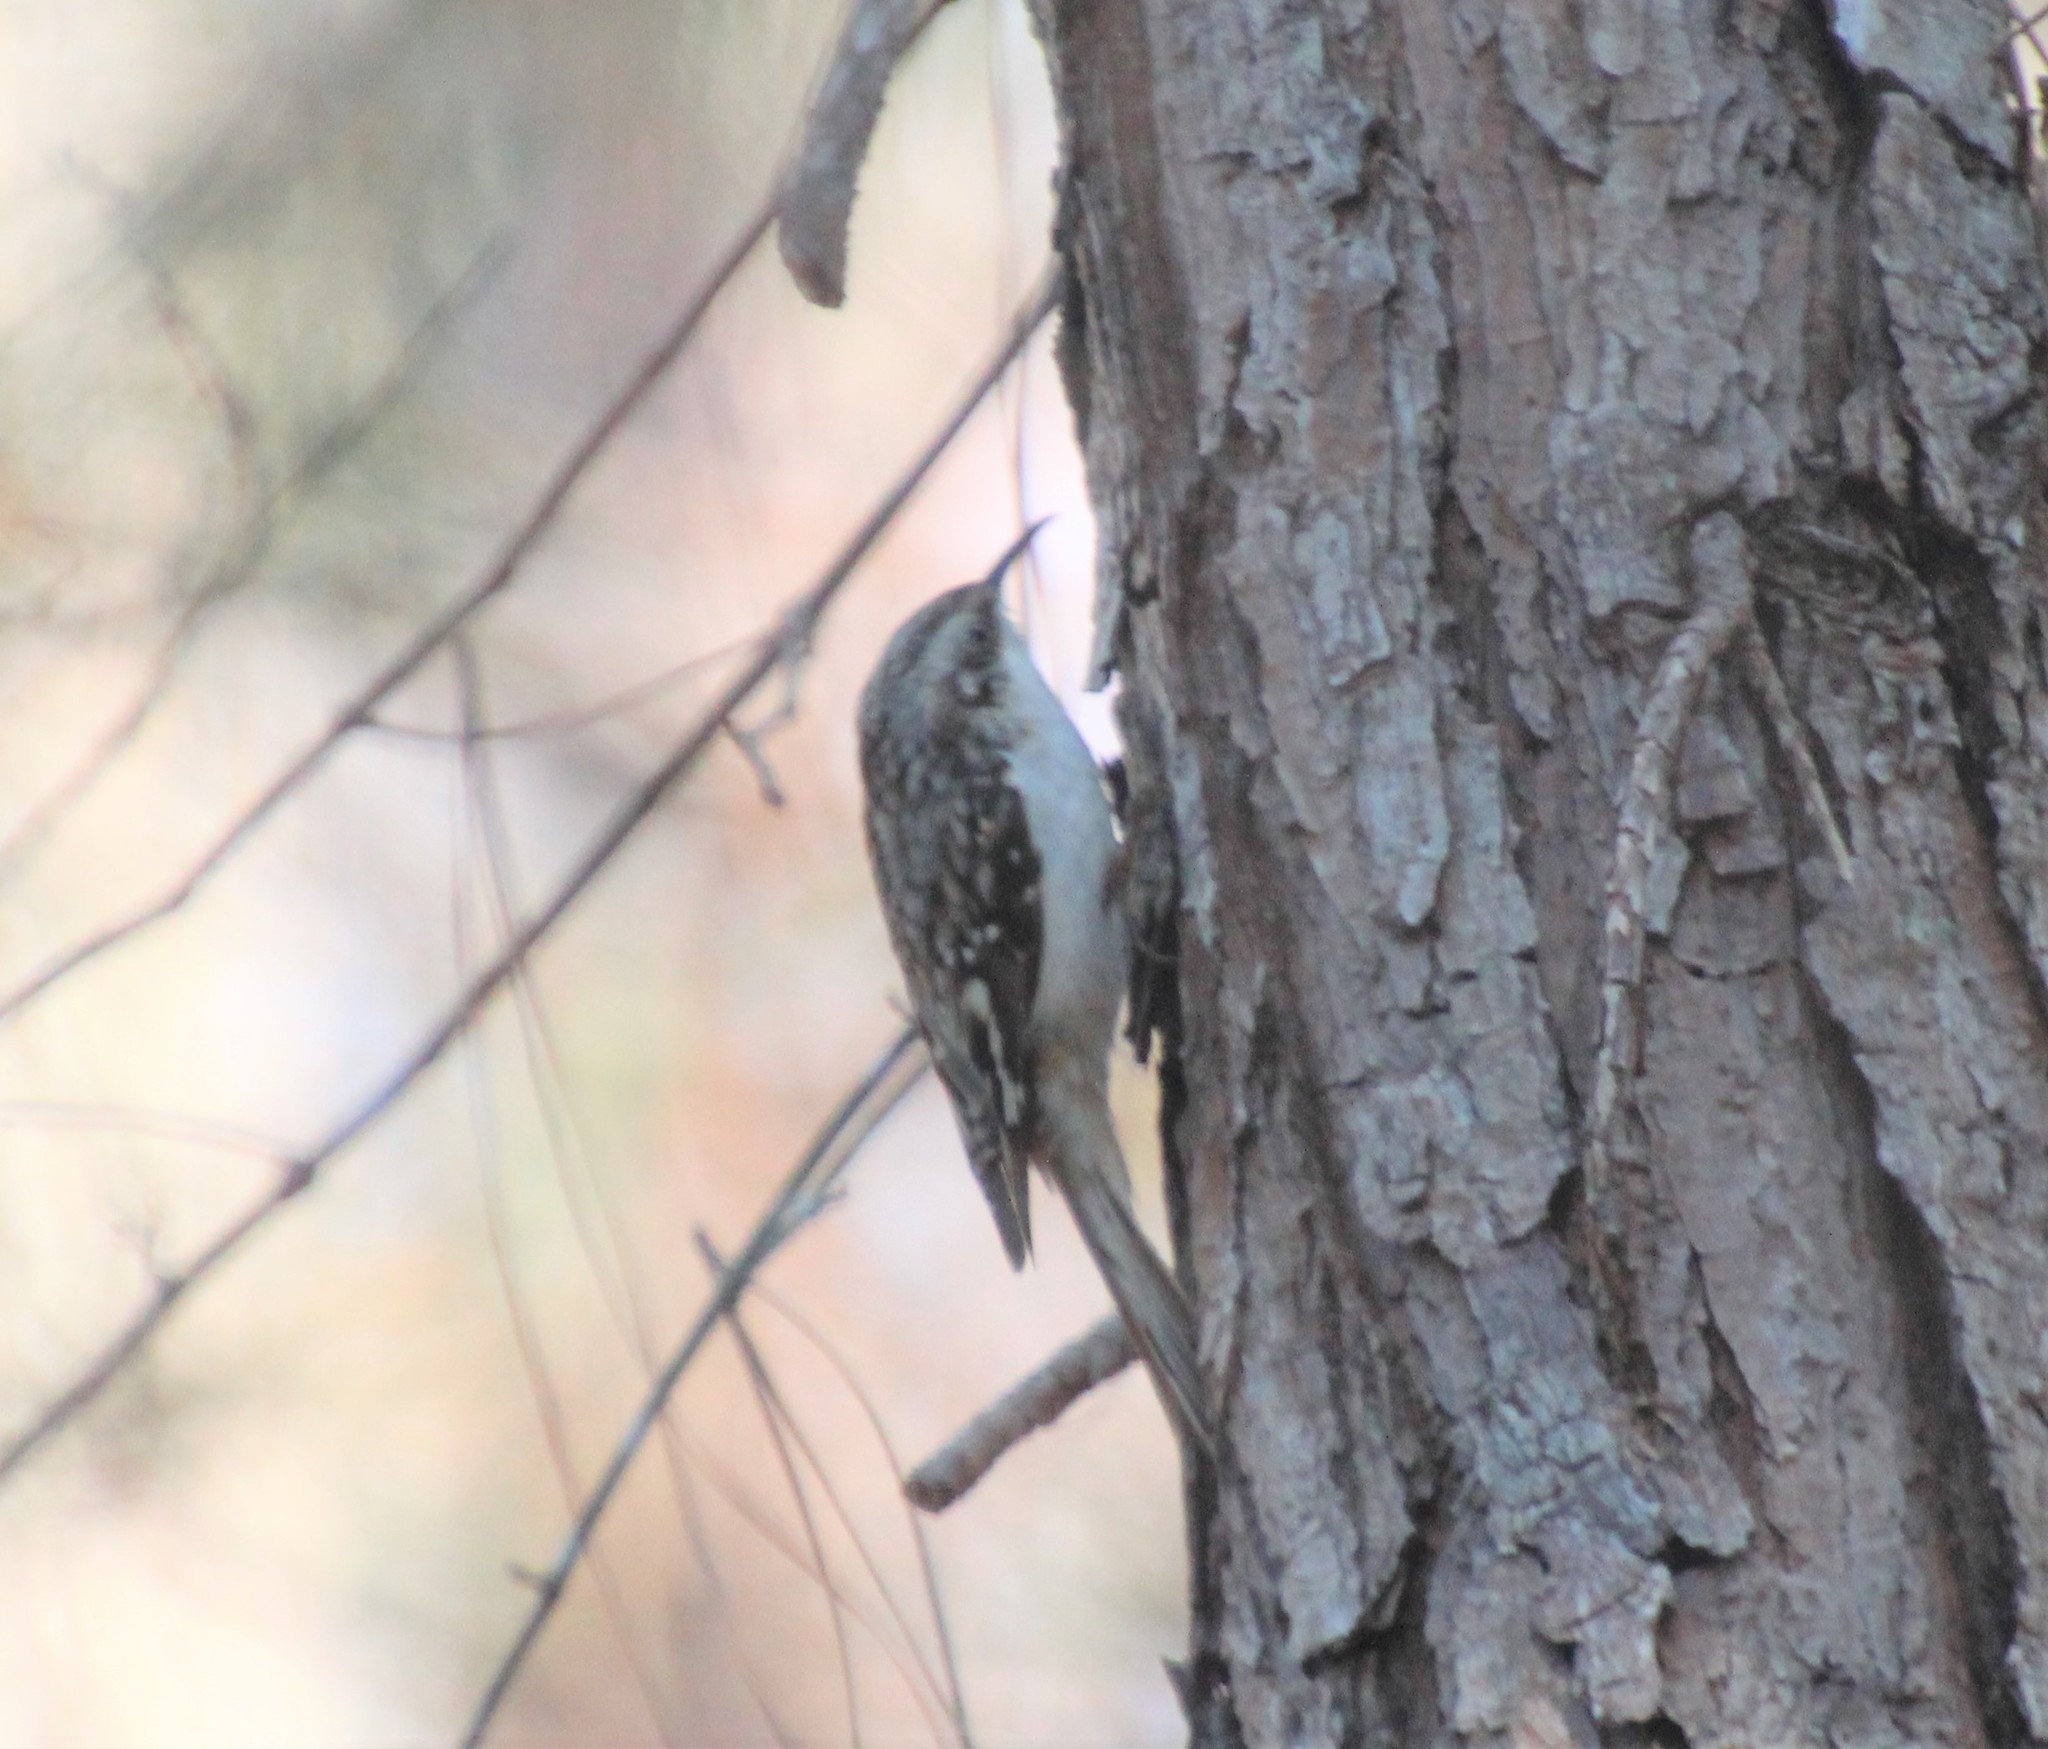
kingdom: Animalia
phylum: Chordata
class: Aves
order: Passeriformes
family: Certhiidae
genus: Certhia
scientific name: Certhia americana
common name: Brown creeper
